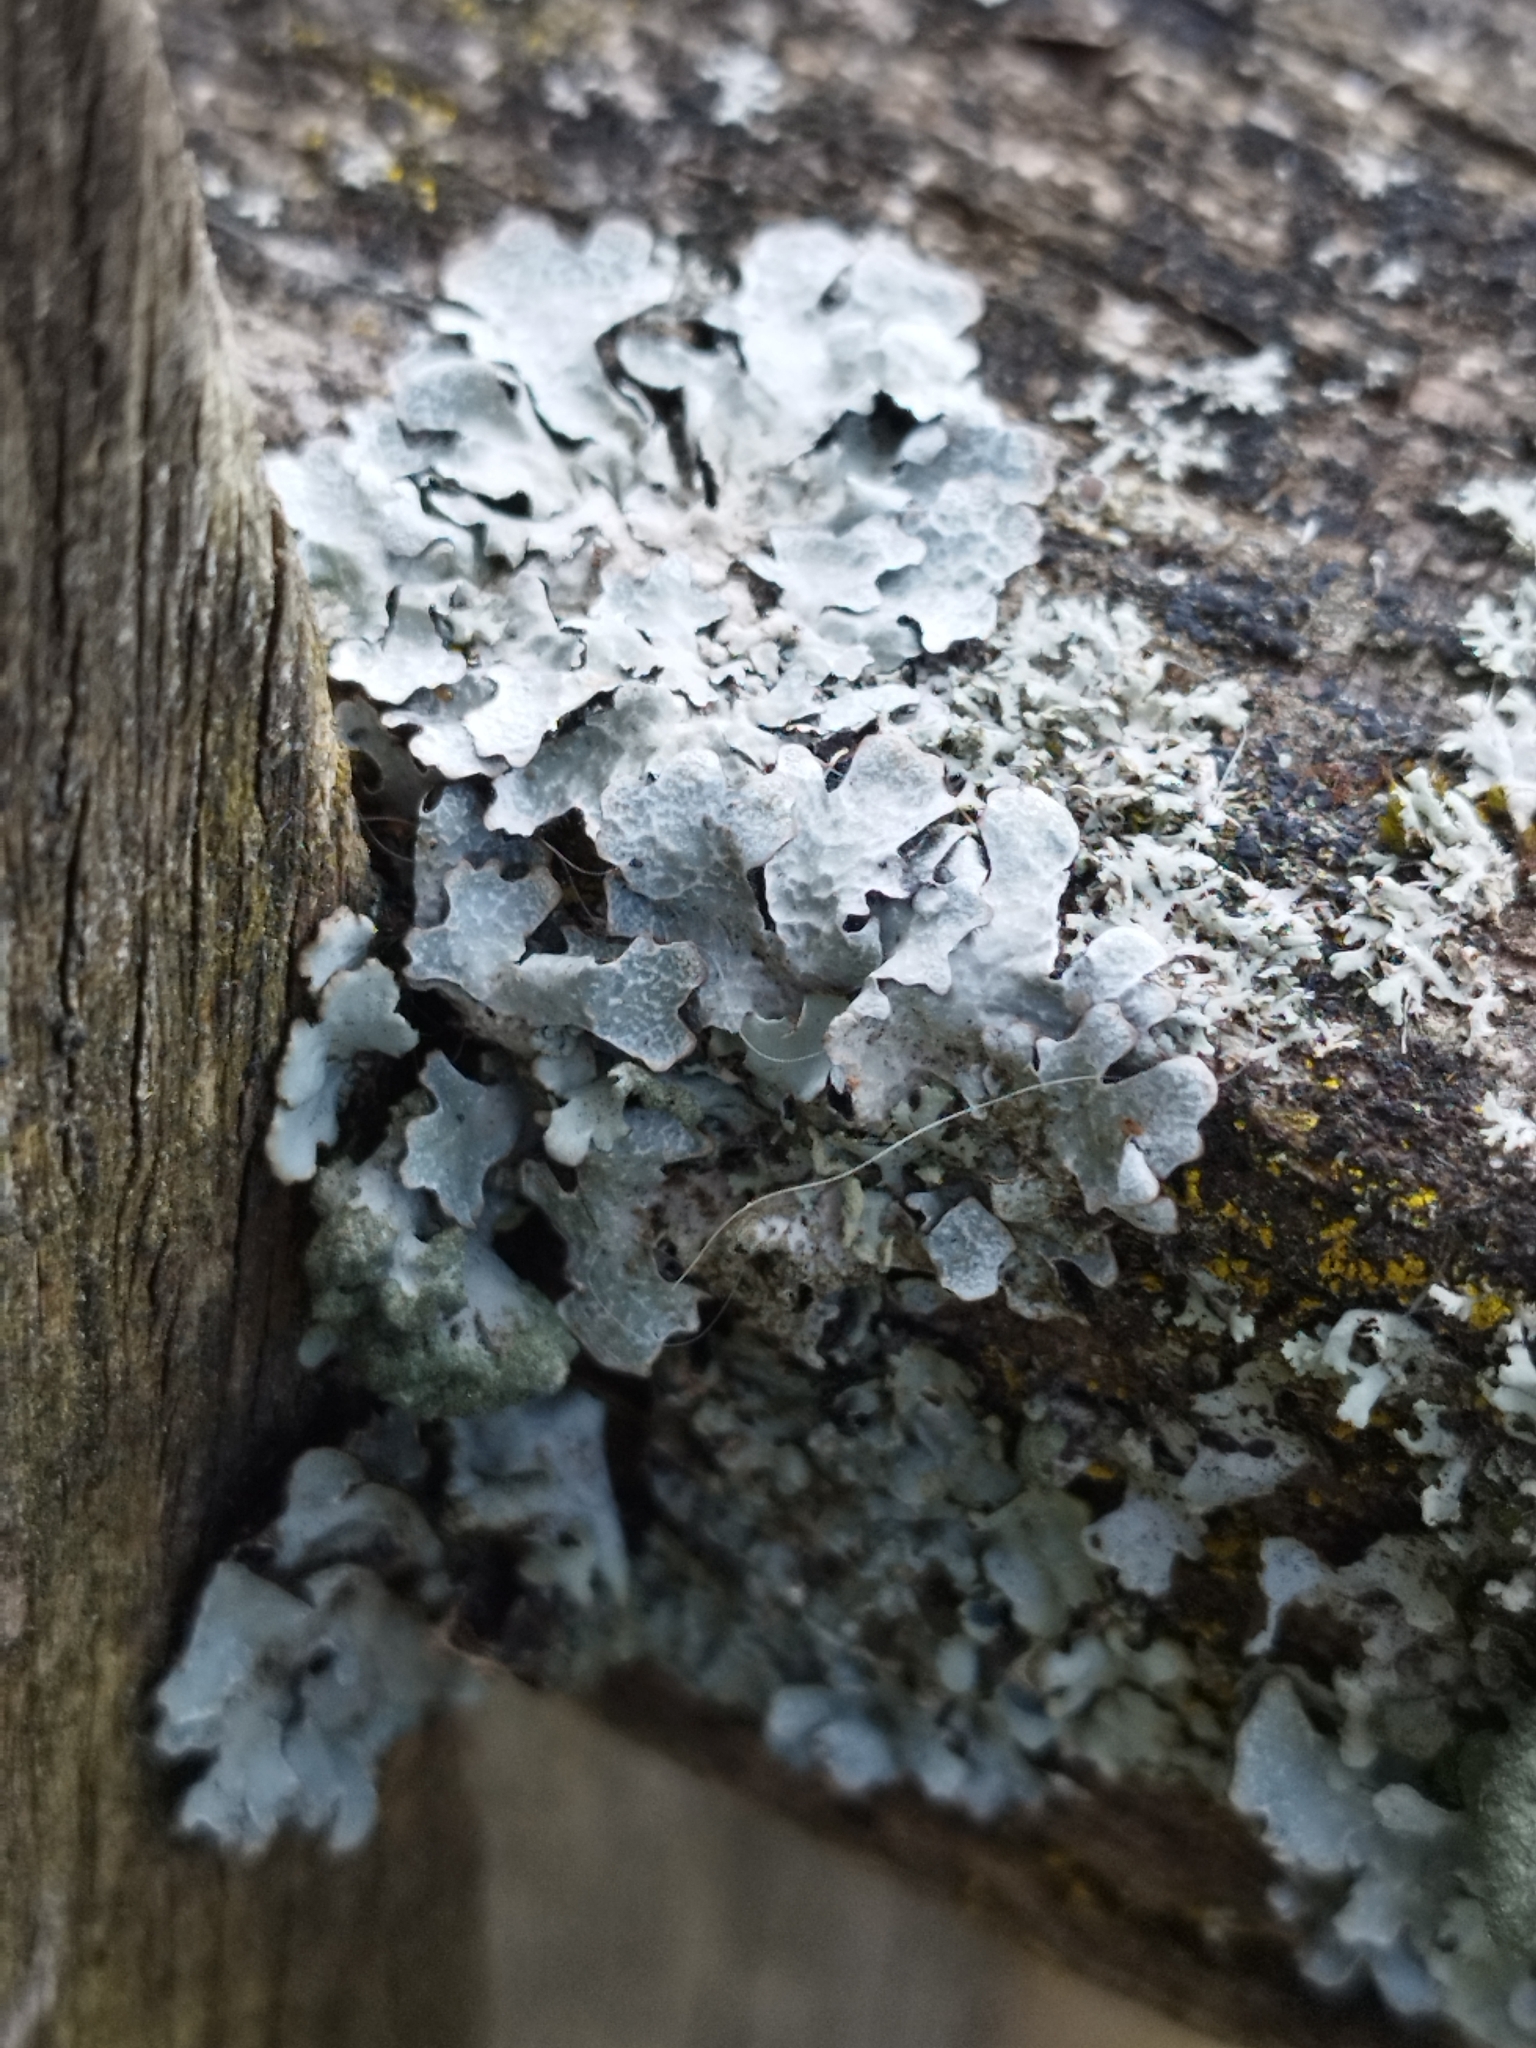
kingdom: Fungi
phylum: Ascomycota
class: Lecanoromycetes
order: Lecanorales
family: Parmeliaceae
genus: Parmelia
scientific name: Parmelia sulcata
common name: Netted shield lichen
